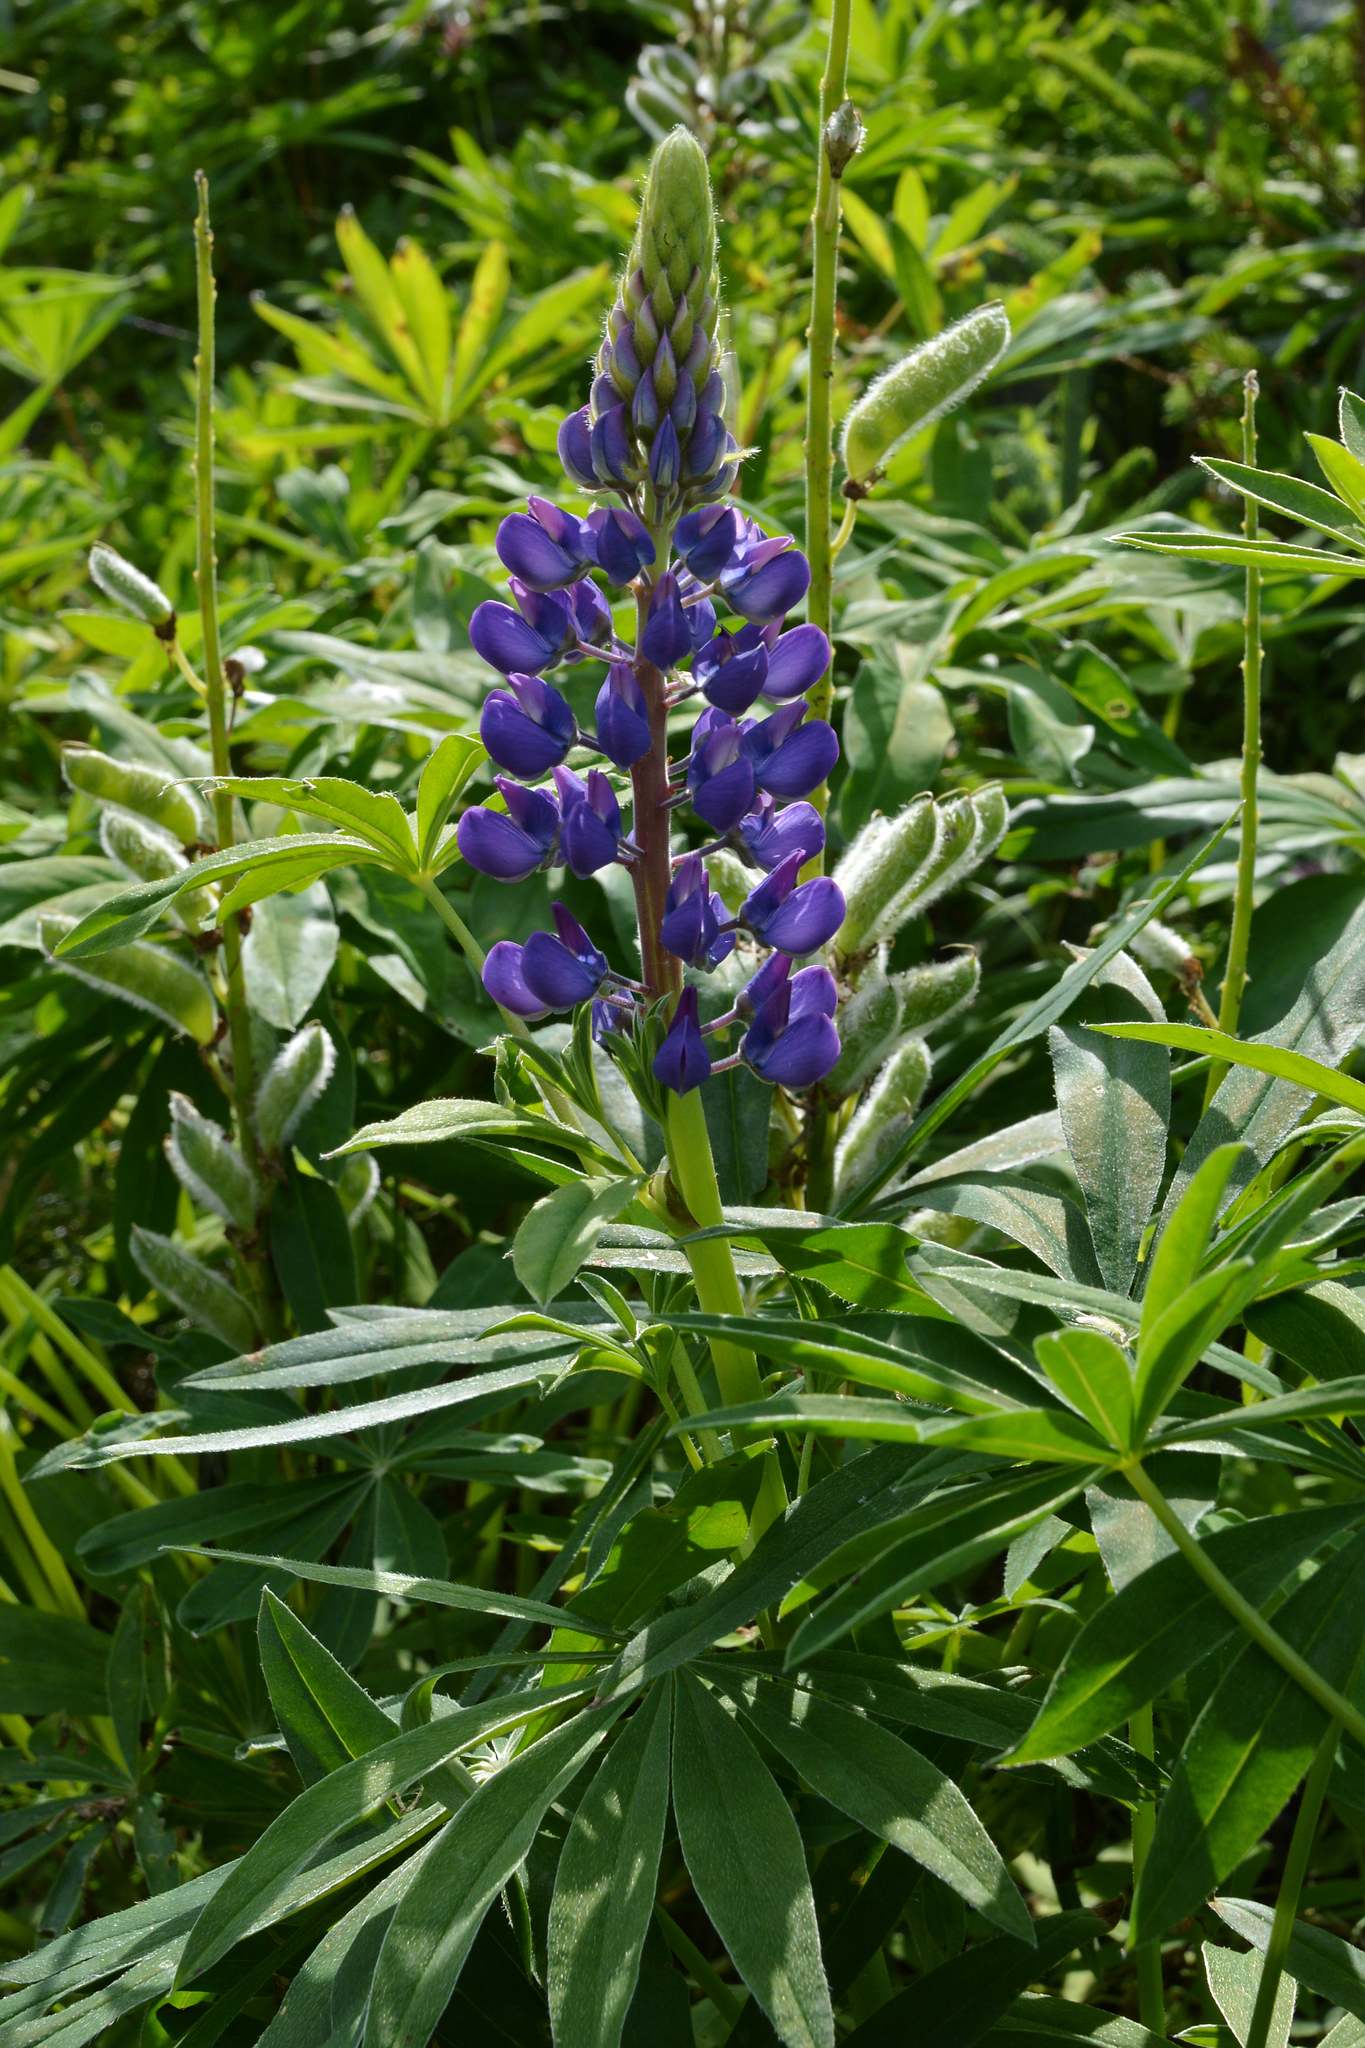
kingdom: Plantae
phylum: Tracheophyta
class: Magnoliopsida
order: Fabales
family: Fabaceae
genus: Lupinus
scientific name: Lupinus polyphyllus
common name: Garden lupin
